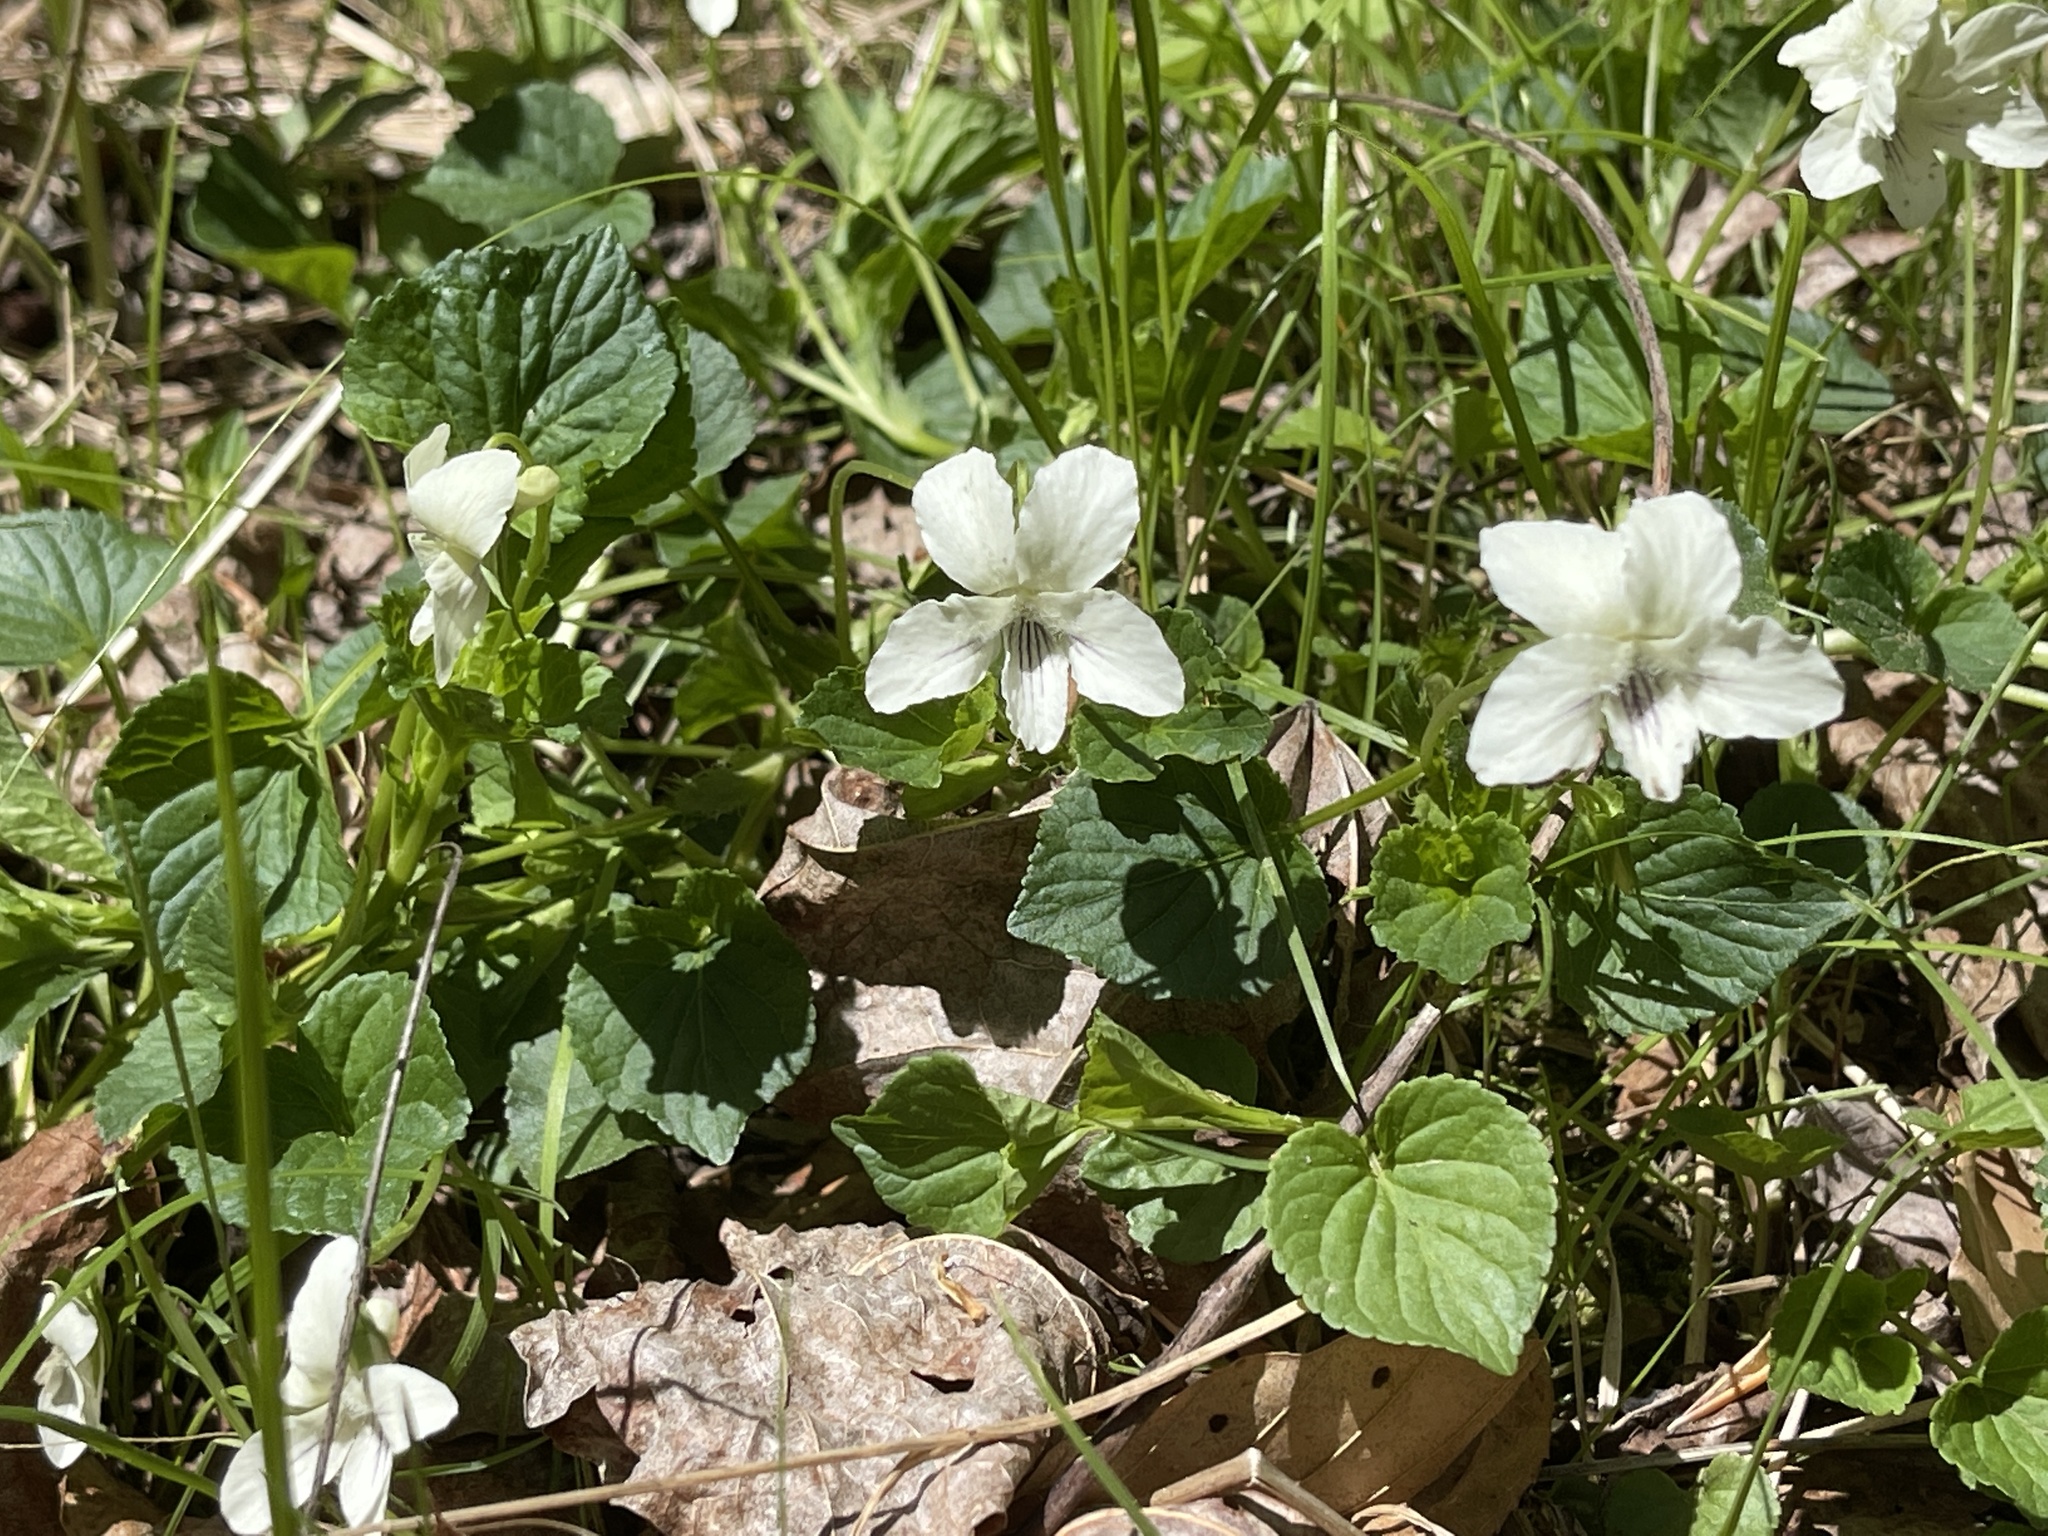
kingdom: Plantae
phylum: Tracheophyta
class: Magnoliopsida
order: Malpighiales
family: Violaceae
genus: Viola
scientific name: Viola striata
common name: Cream violet
